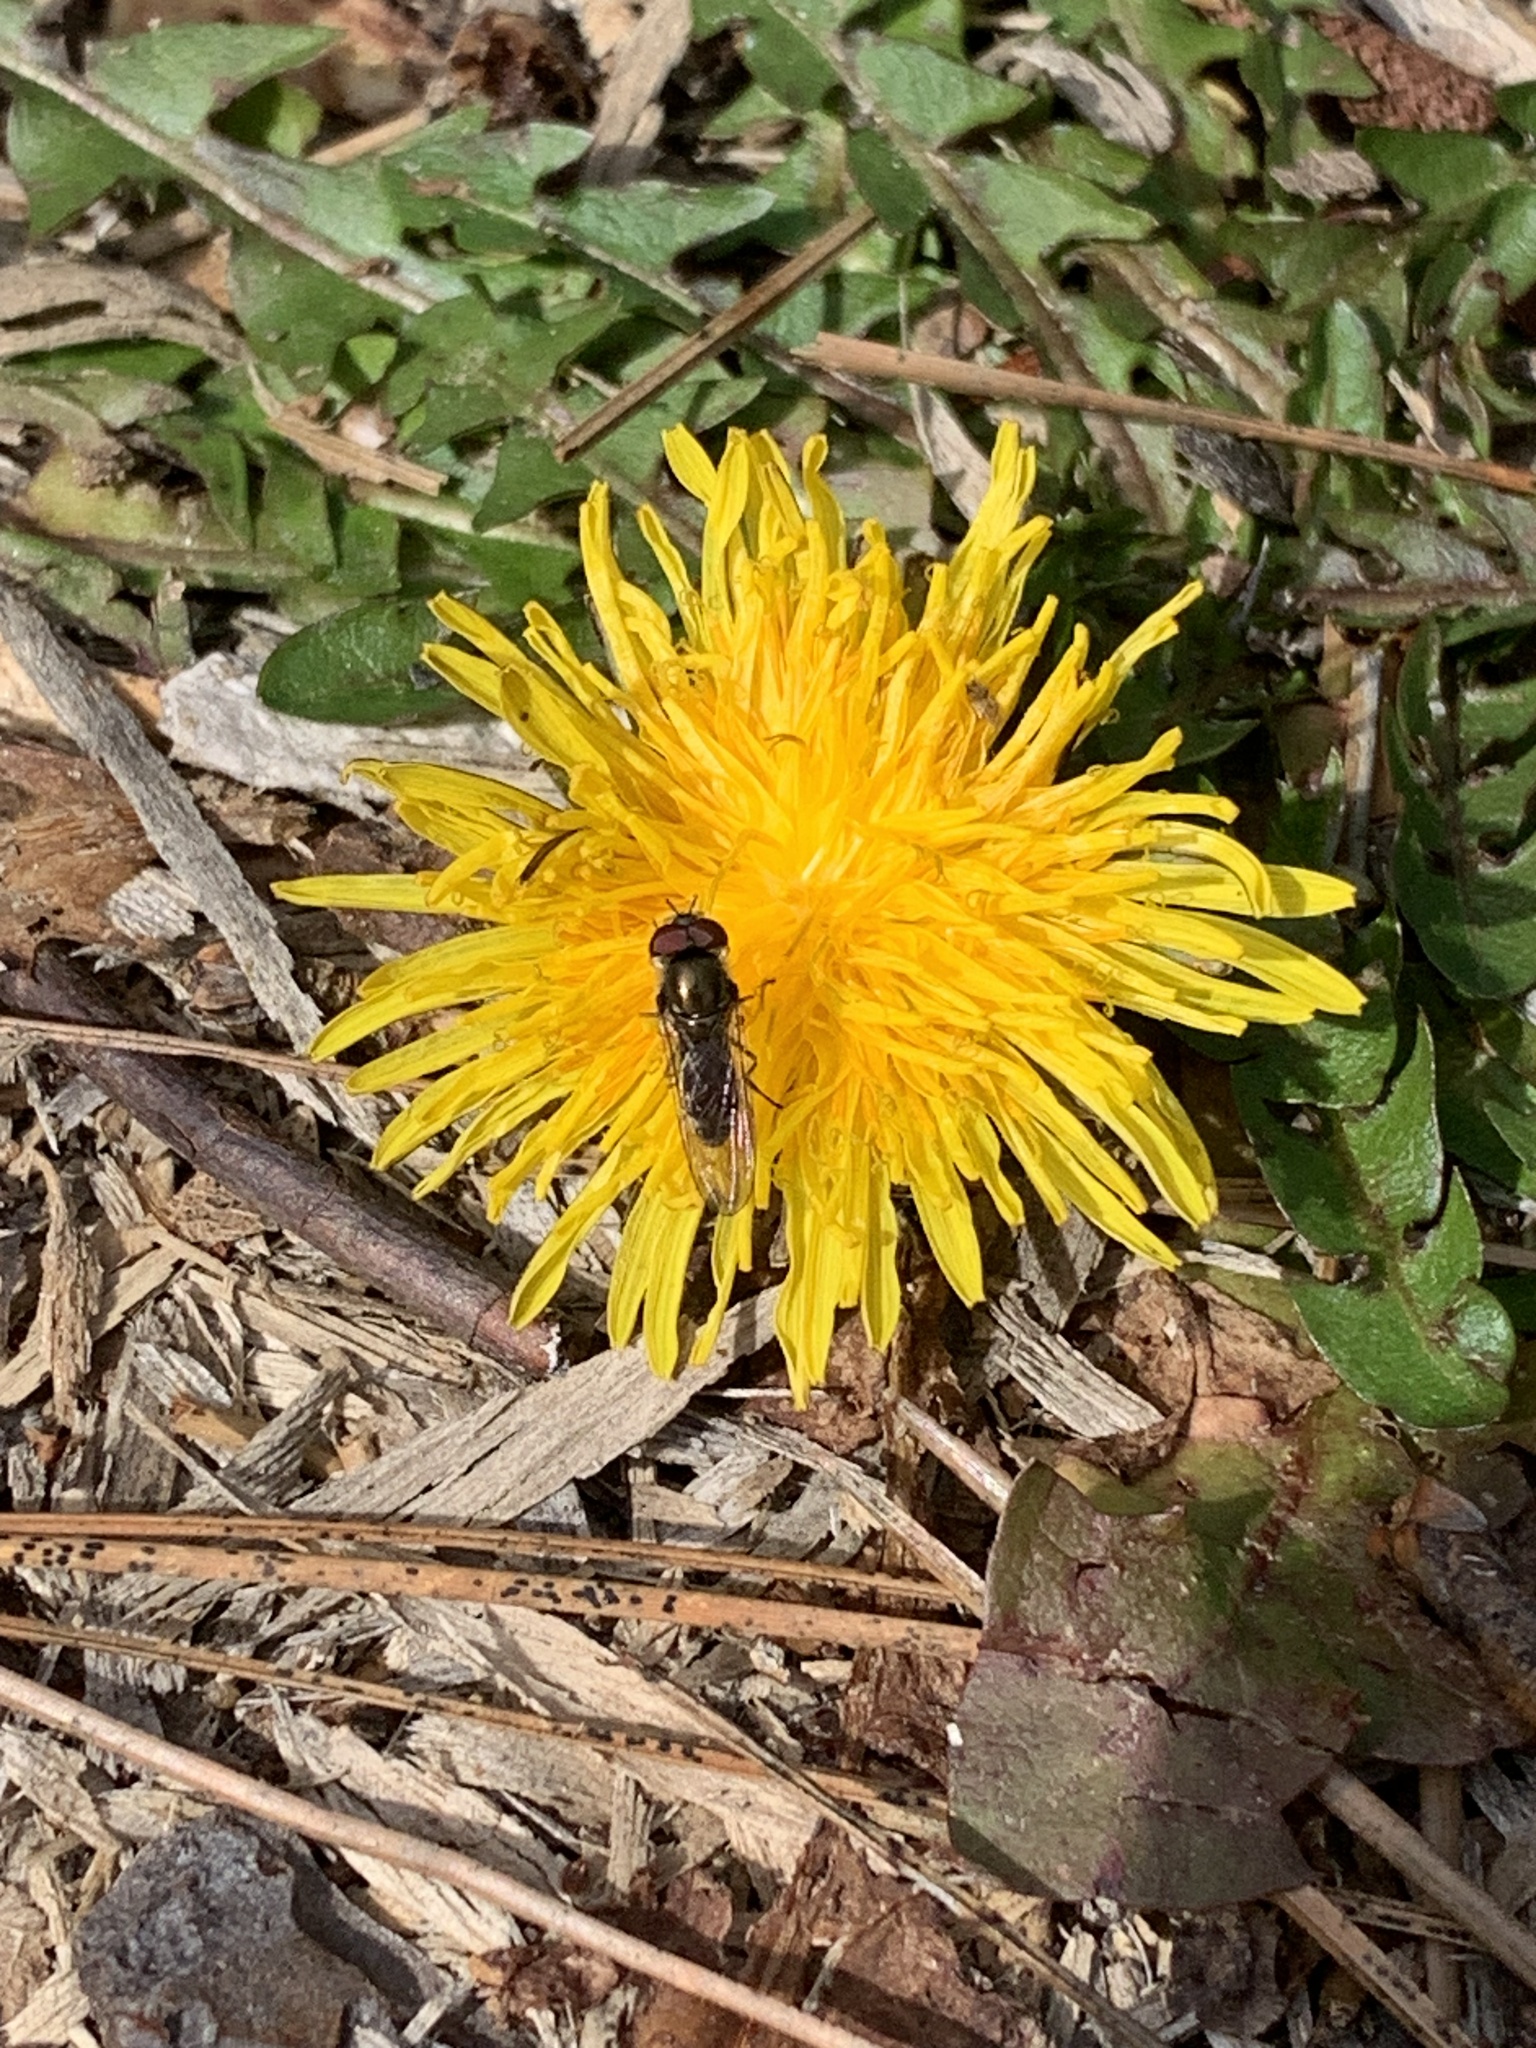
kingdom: Animalia
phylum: Arthropoda
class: Insecta
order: Diptera
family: Syrphidae
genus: Platycheirus
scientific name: Platycheirus trichopus
